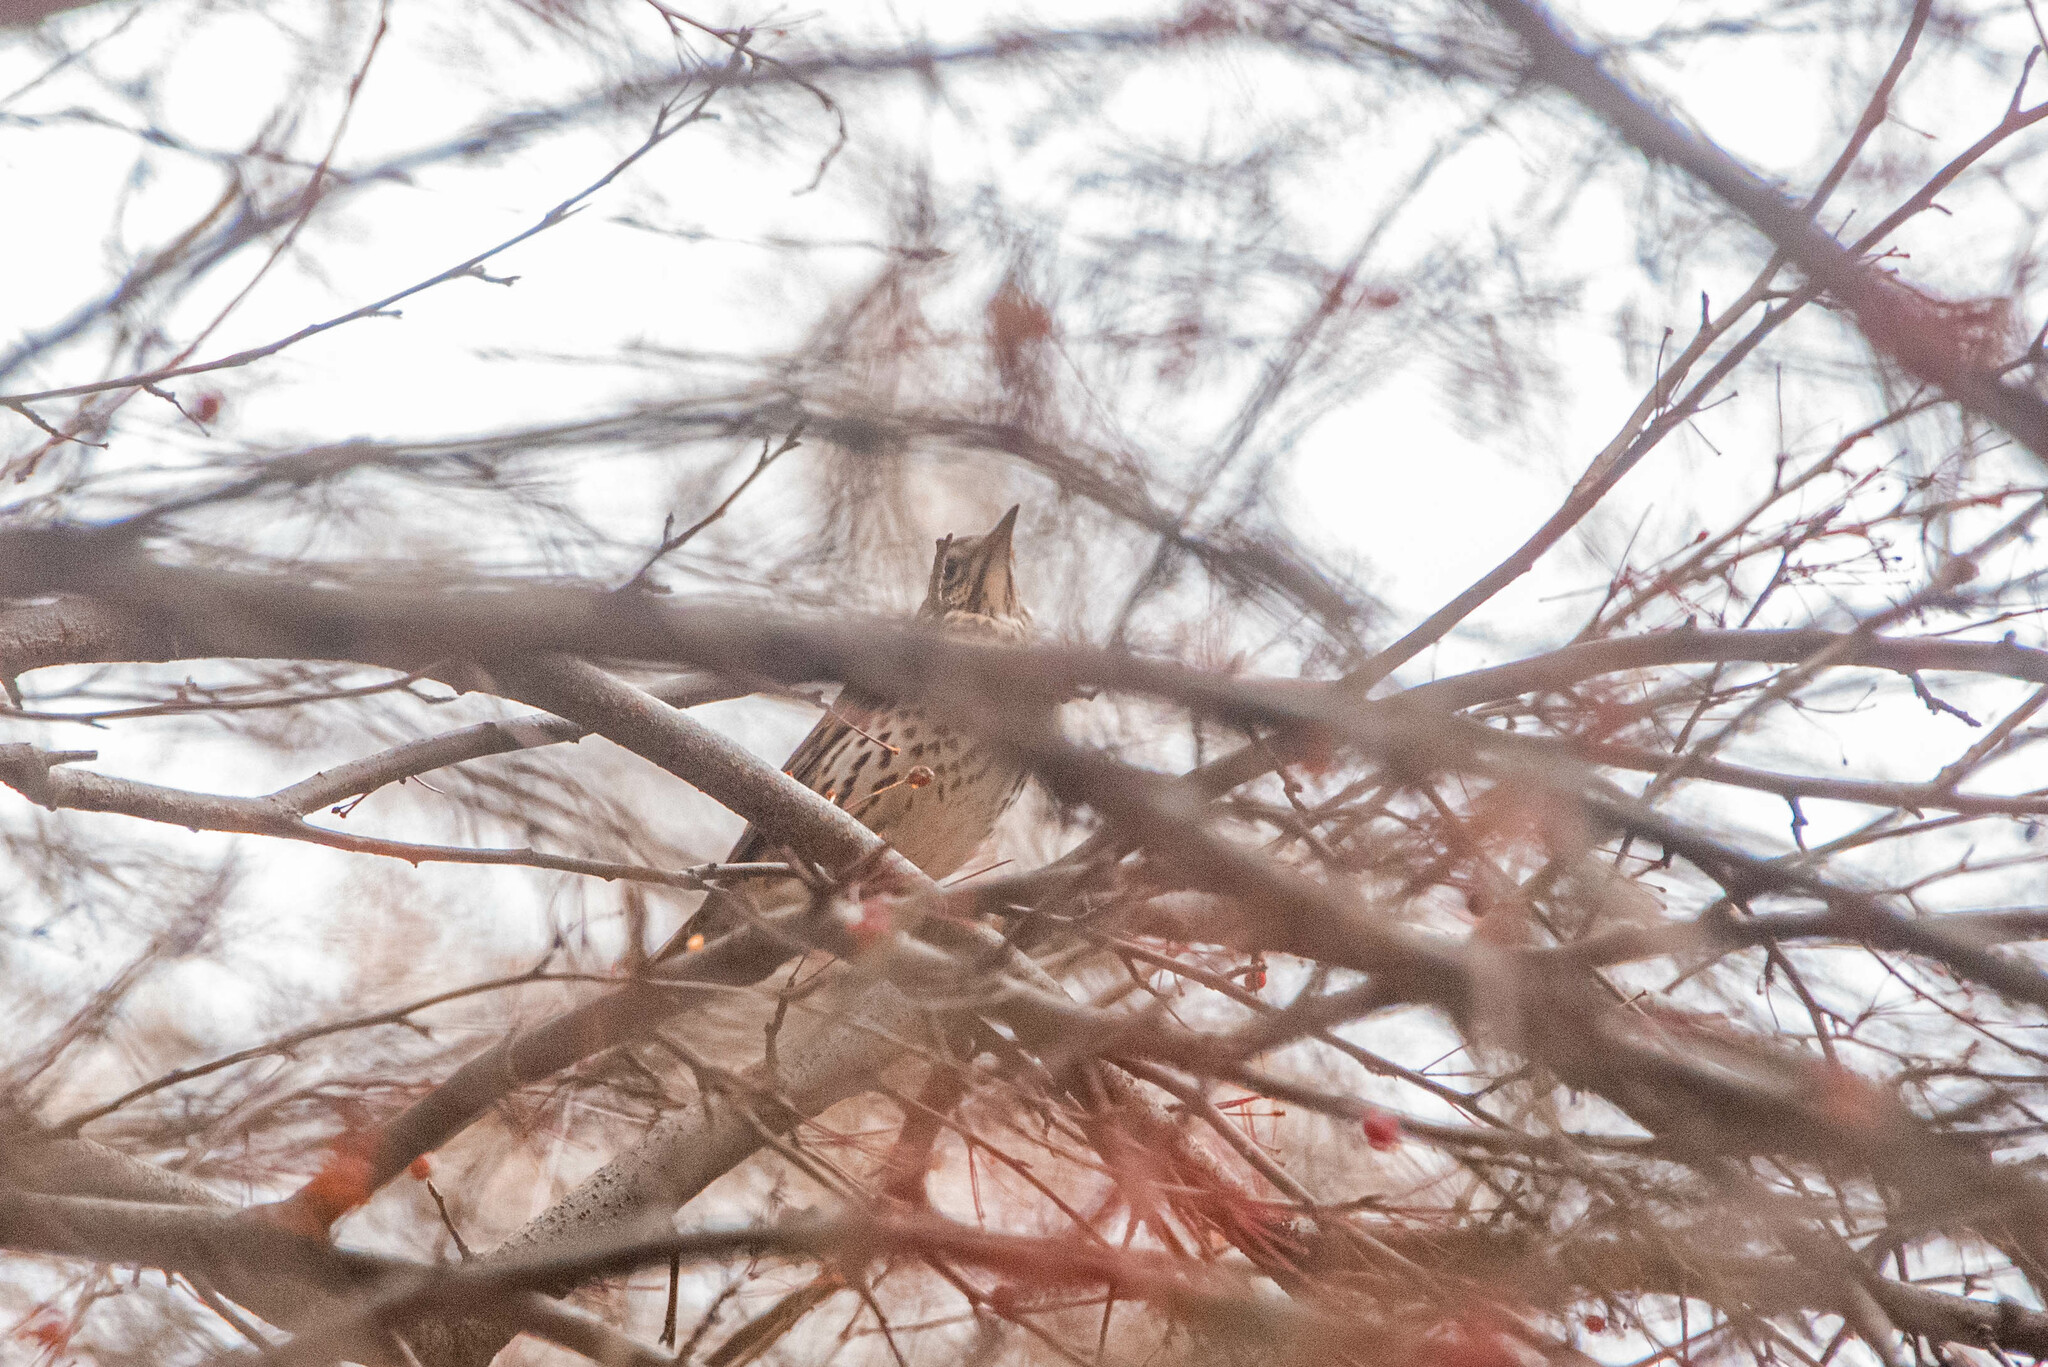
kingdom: Animalia
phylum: Chordata
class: Aves
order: Passeriformes
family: Turdidae
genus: Turdus
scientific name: Turdus philomelos
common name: Song thrush
